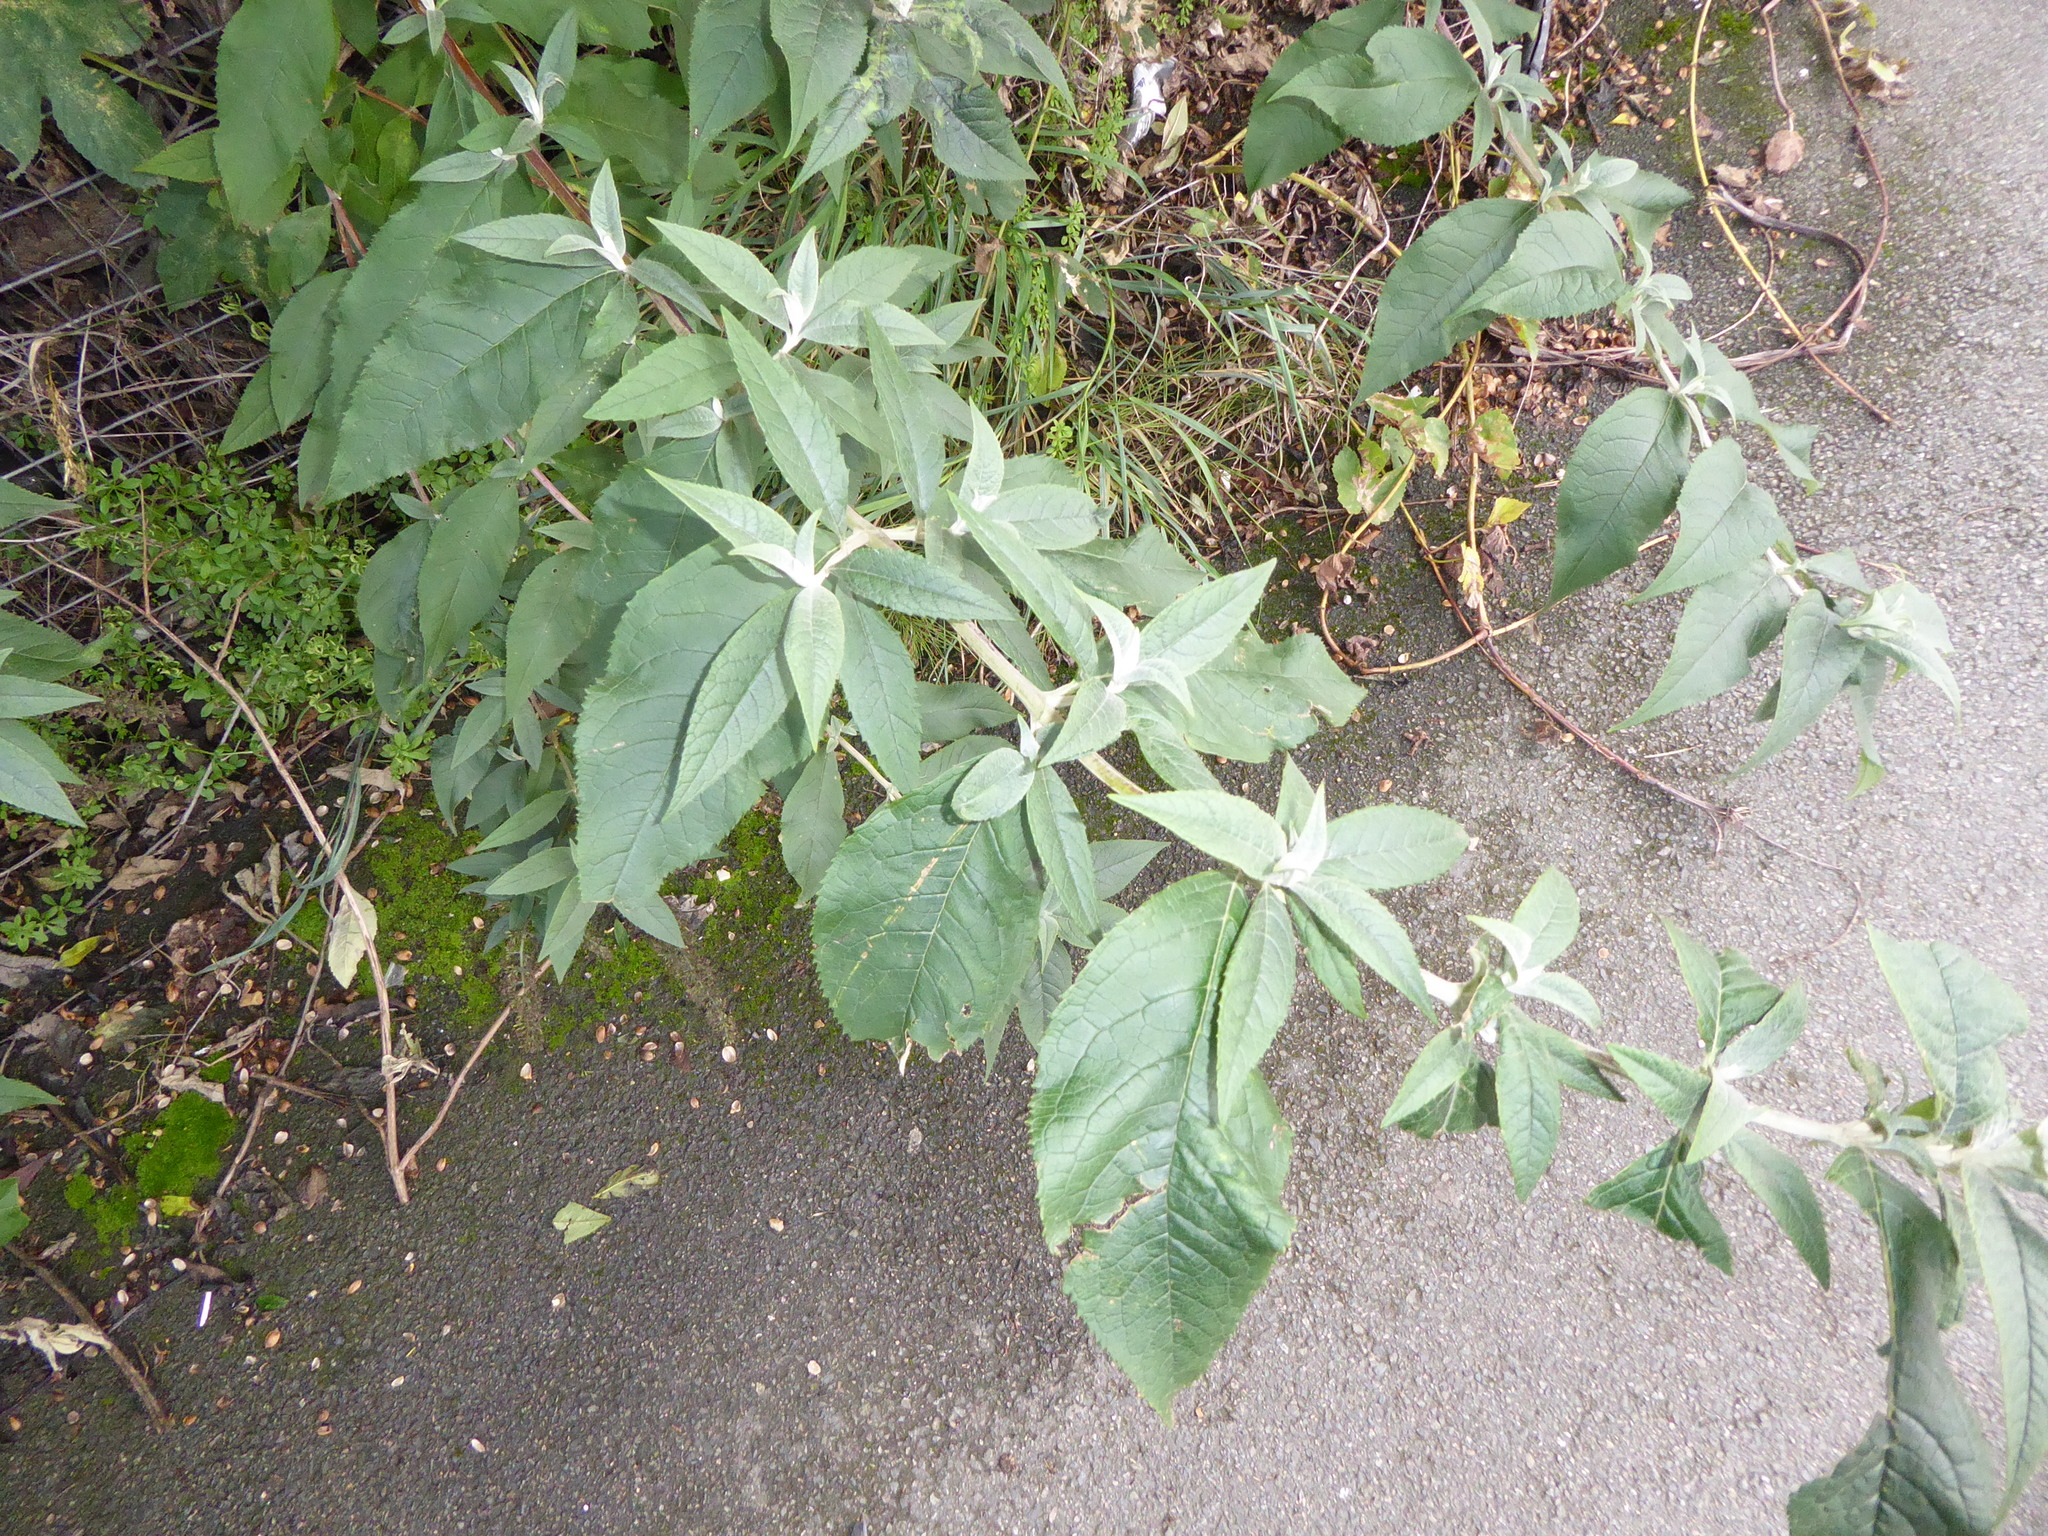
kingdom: Plantae
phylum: Tracheophyta
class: Magnoliopsida
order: Lamiales
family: Scrophulariaceae
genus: Buddleja
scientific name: Buddleja davidii
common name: Butterfly-bush
